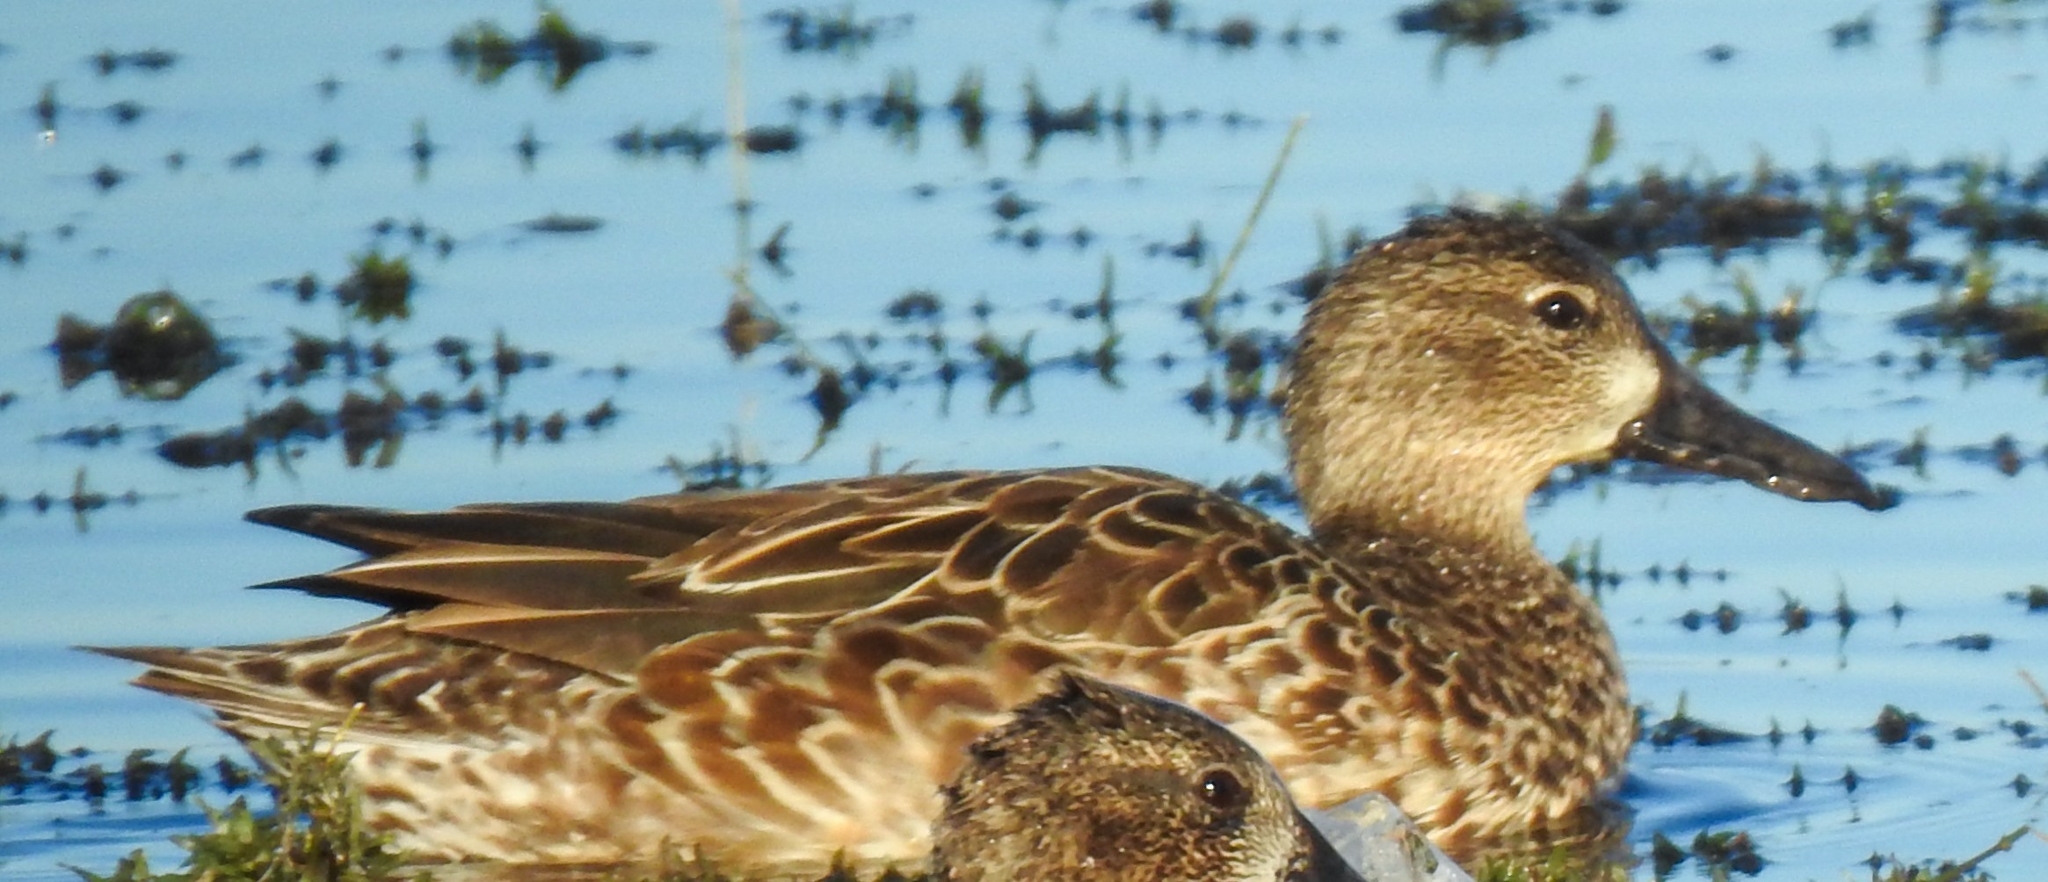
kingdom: Animalia
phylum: Chordata
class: Aves
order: Anseriformes
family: Anatidae
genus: Spatula
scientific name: Spatula discors
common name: Blue-winged teal
